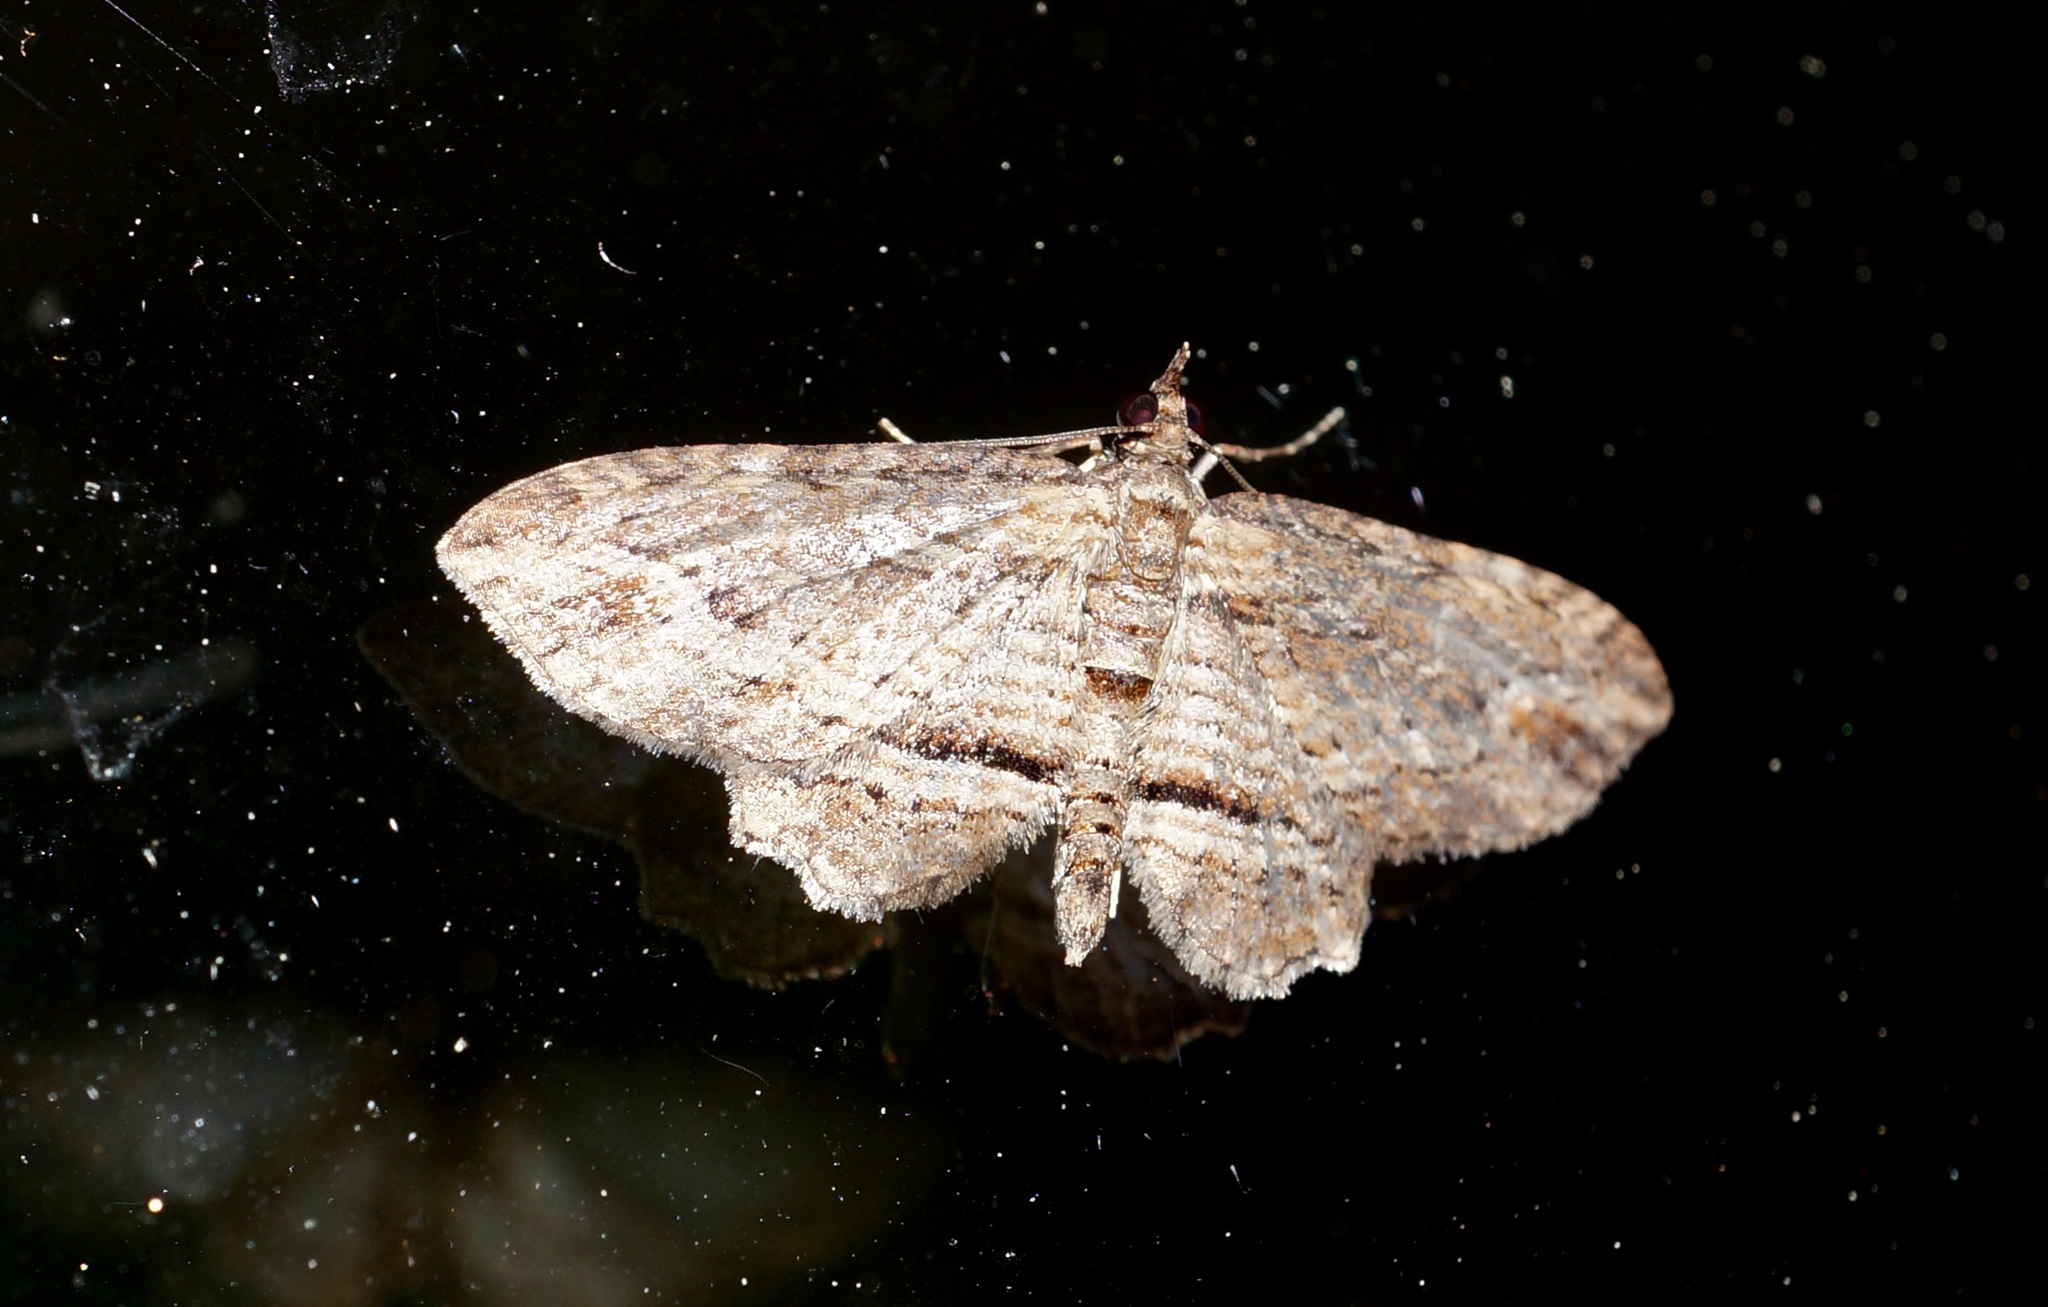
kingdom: Animalia
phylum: Arthropoda
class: Insecta
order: Lepidoptera
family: Geometridae
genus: Chloroclystis
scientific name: Chloroclystis filata
